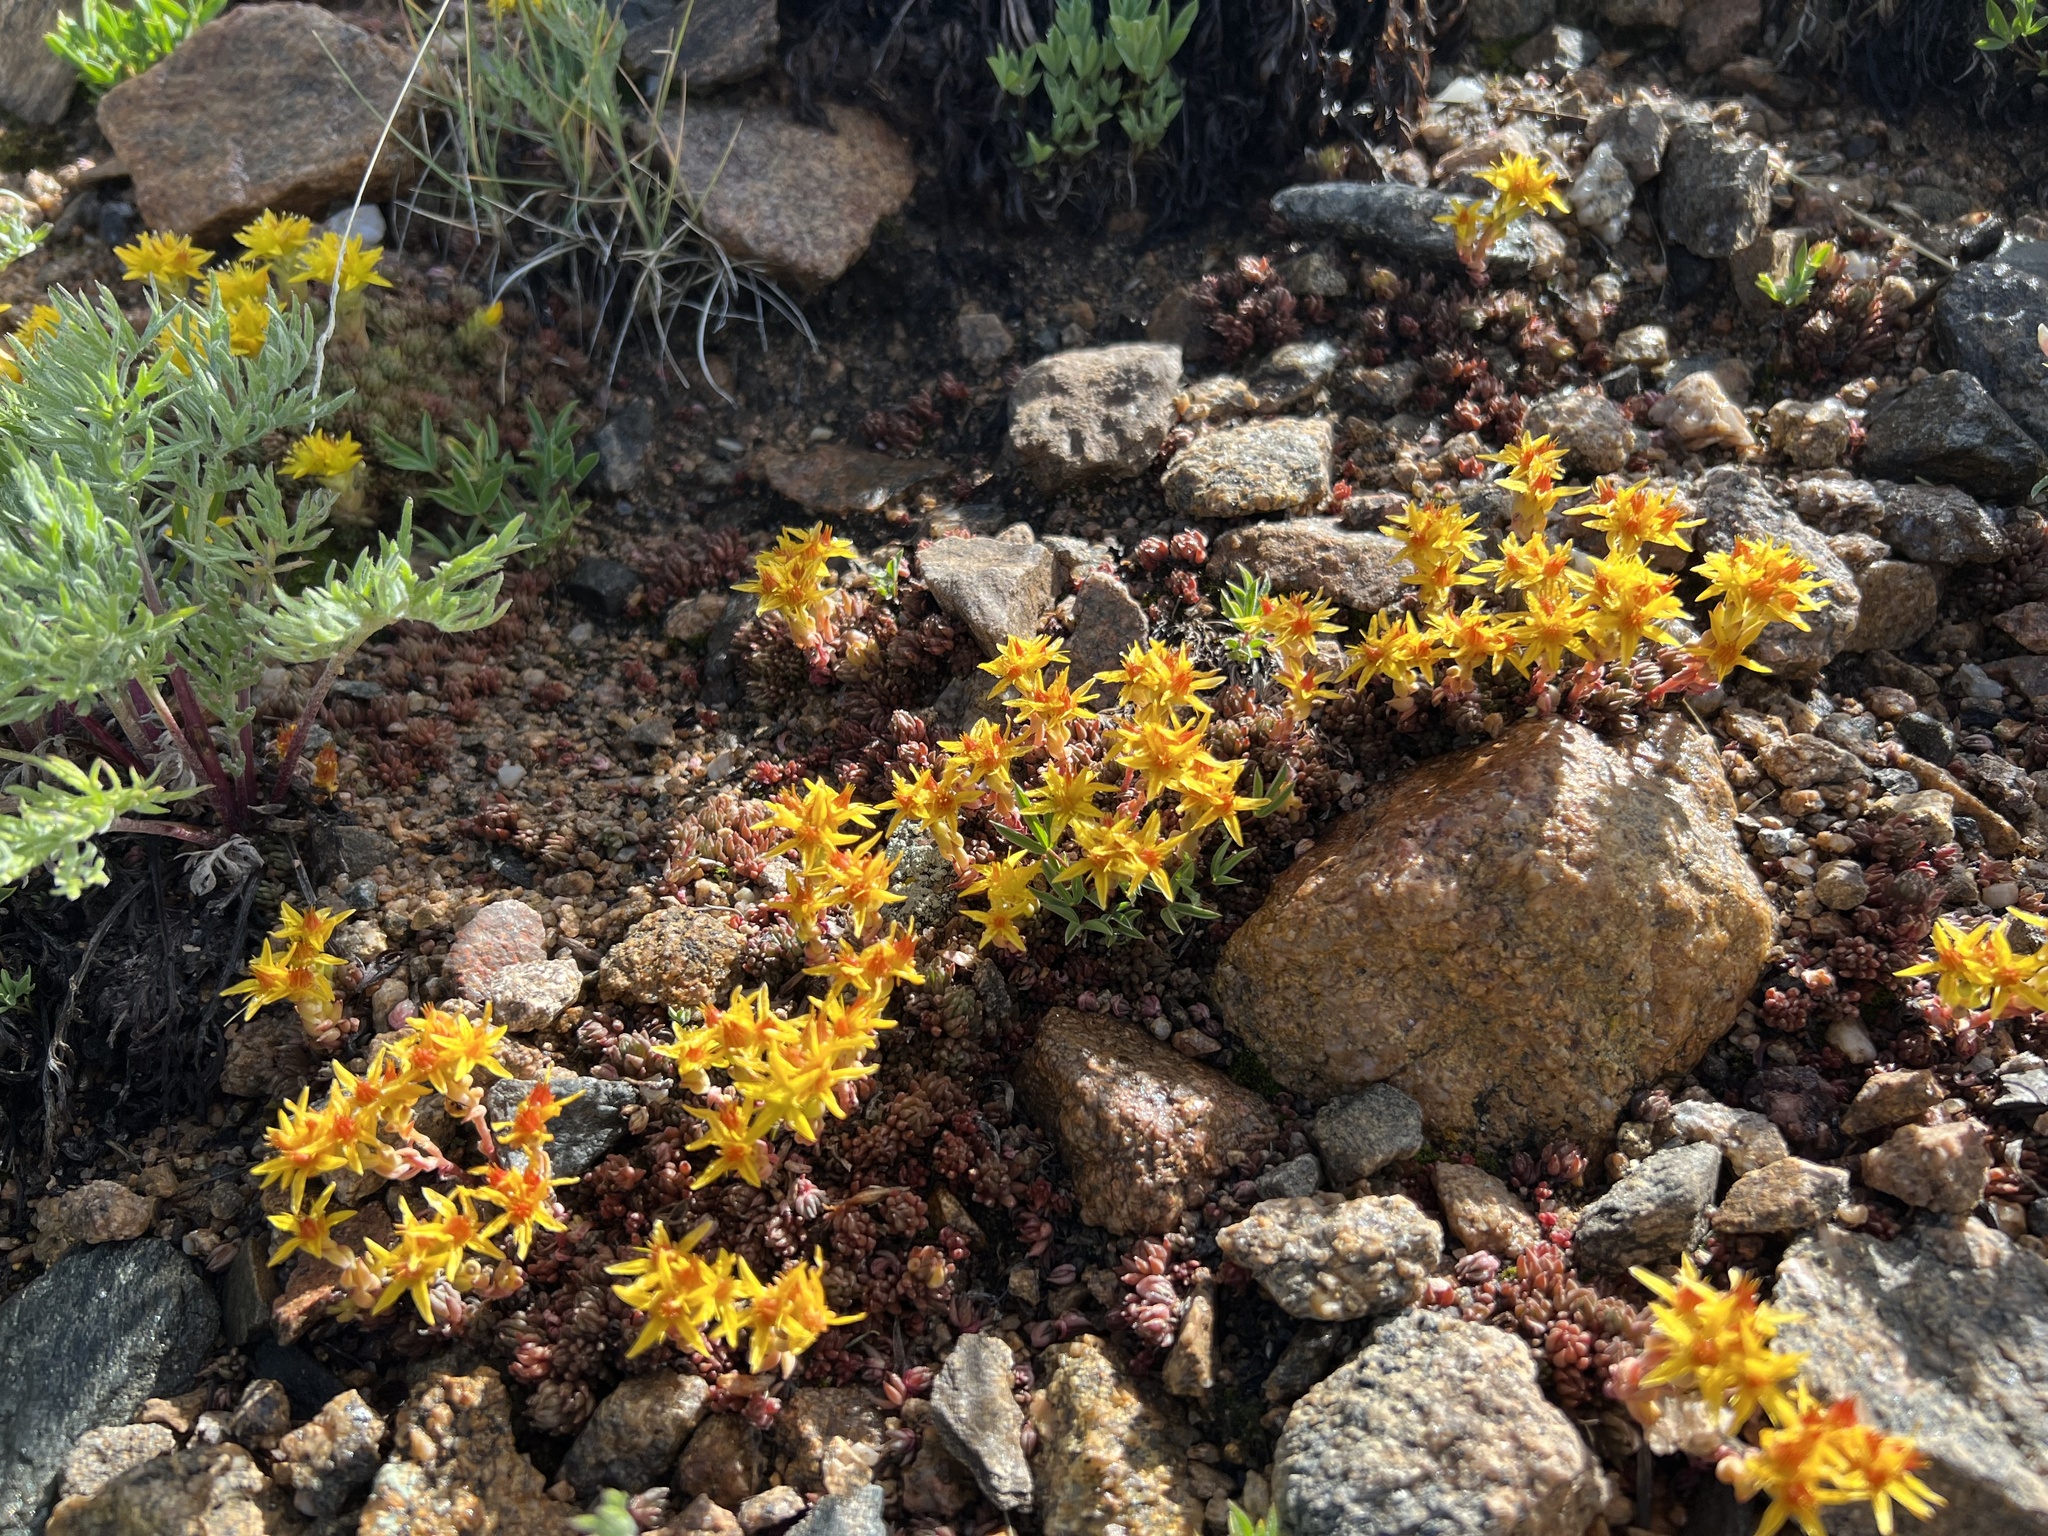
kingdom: Plantae
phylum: Tracheophyta
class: Magnoliopsida
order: Saxifragales
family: Crassulaceae
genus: Sedum
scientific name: Sedum lanceolatum
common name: Common stonecrop
